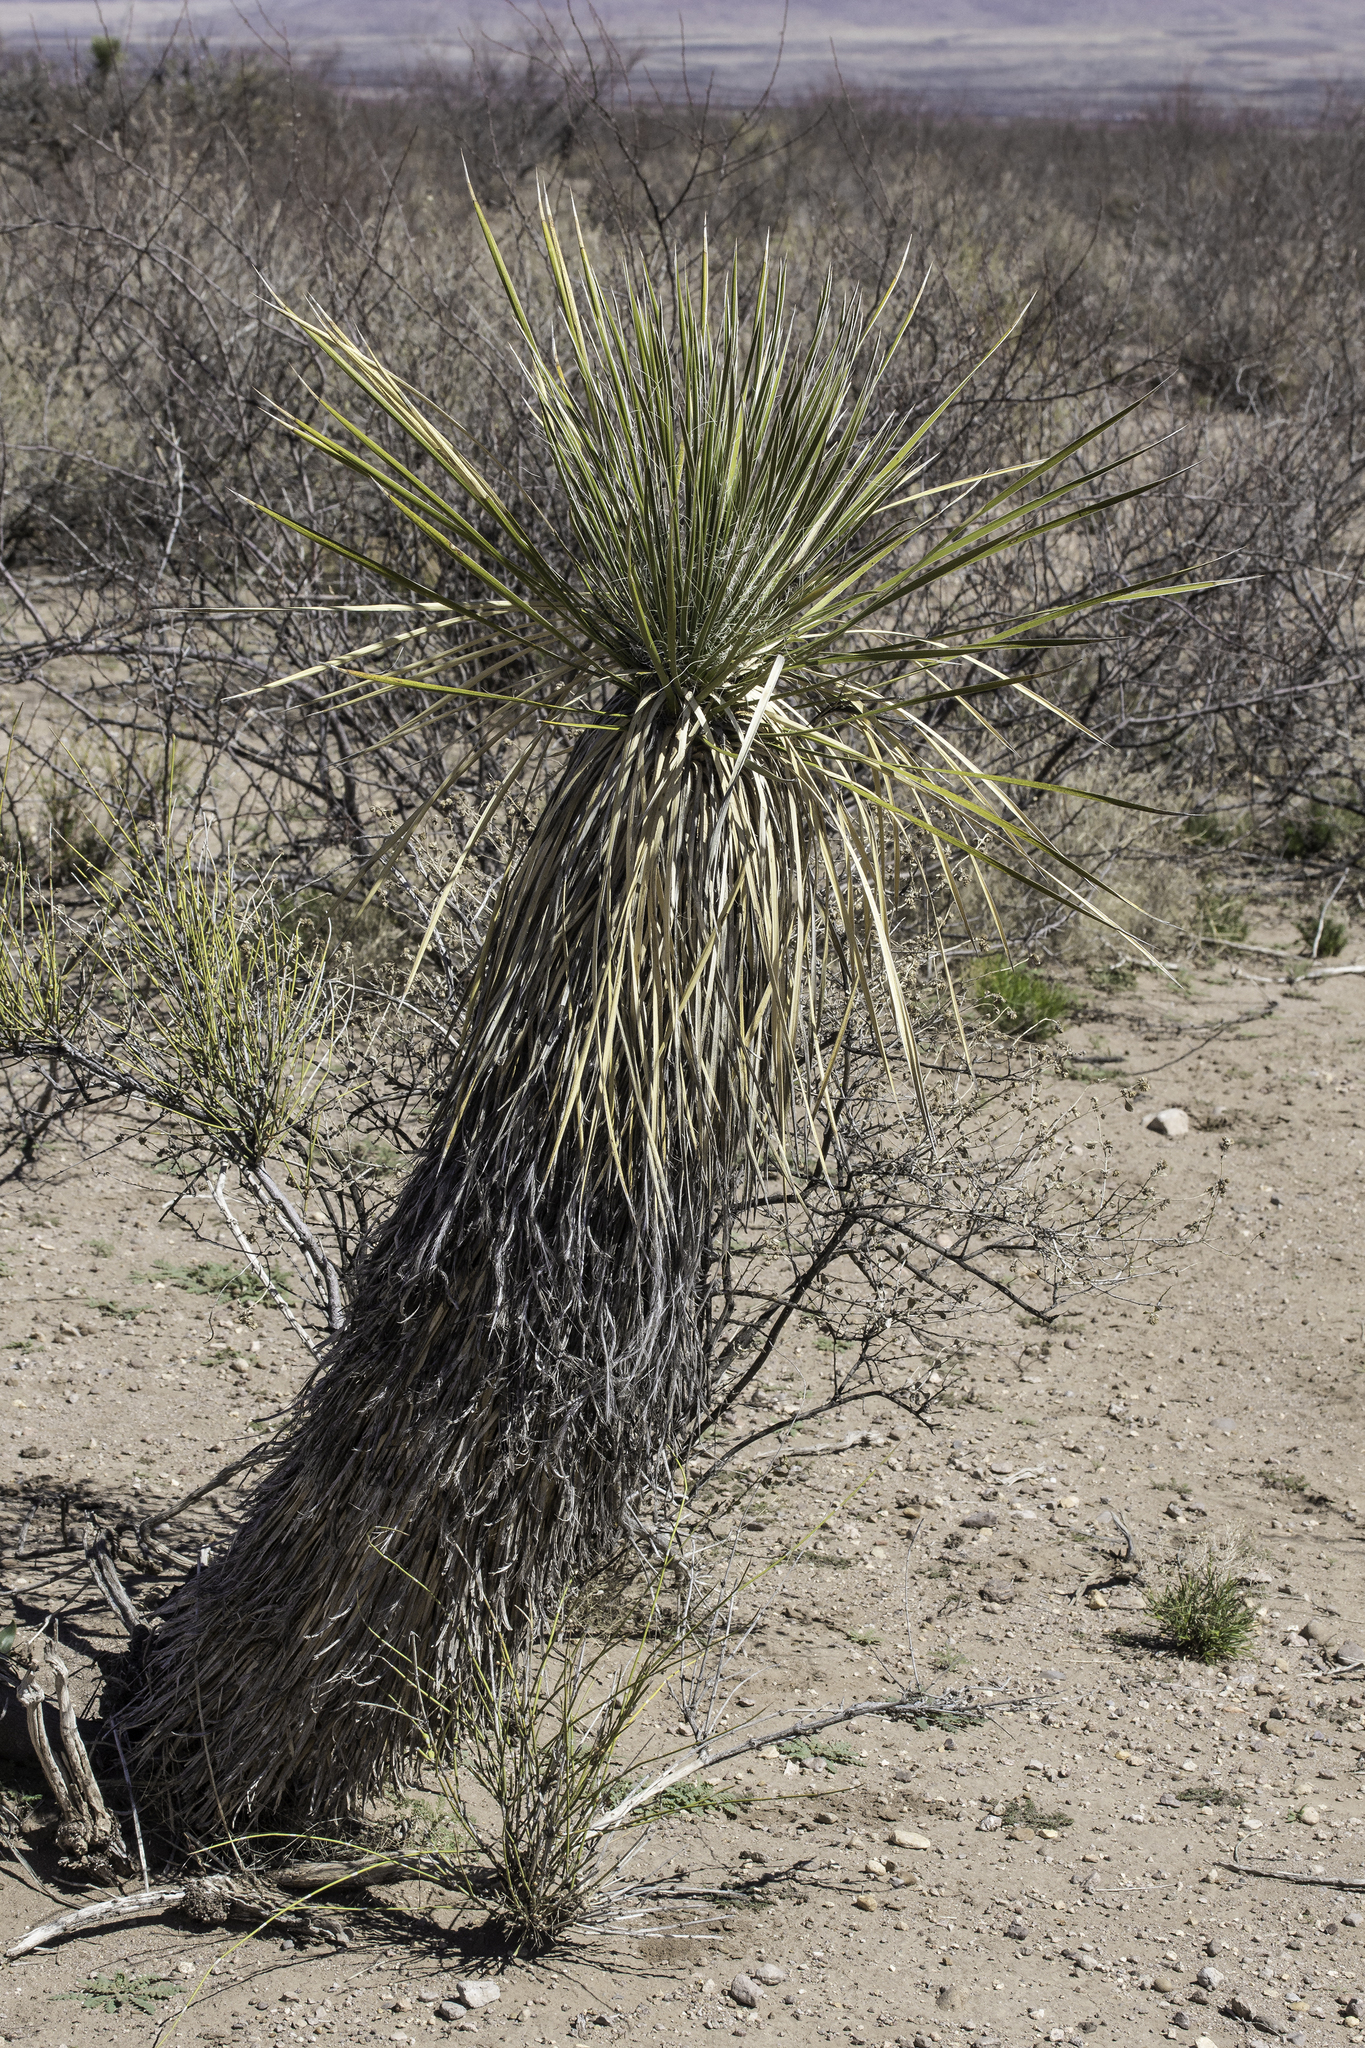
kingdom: Plantae
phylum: Tracheophyta
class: Liliopsida
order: Asparagales
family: Asparagaceae
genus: Yucca
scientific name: Yucca elata
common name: Palmella
